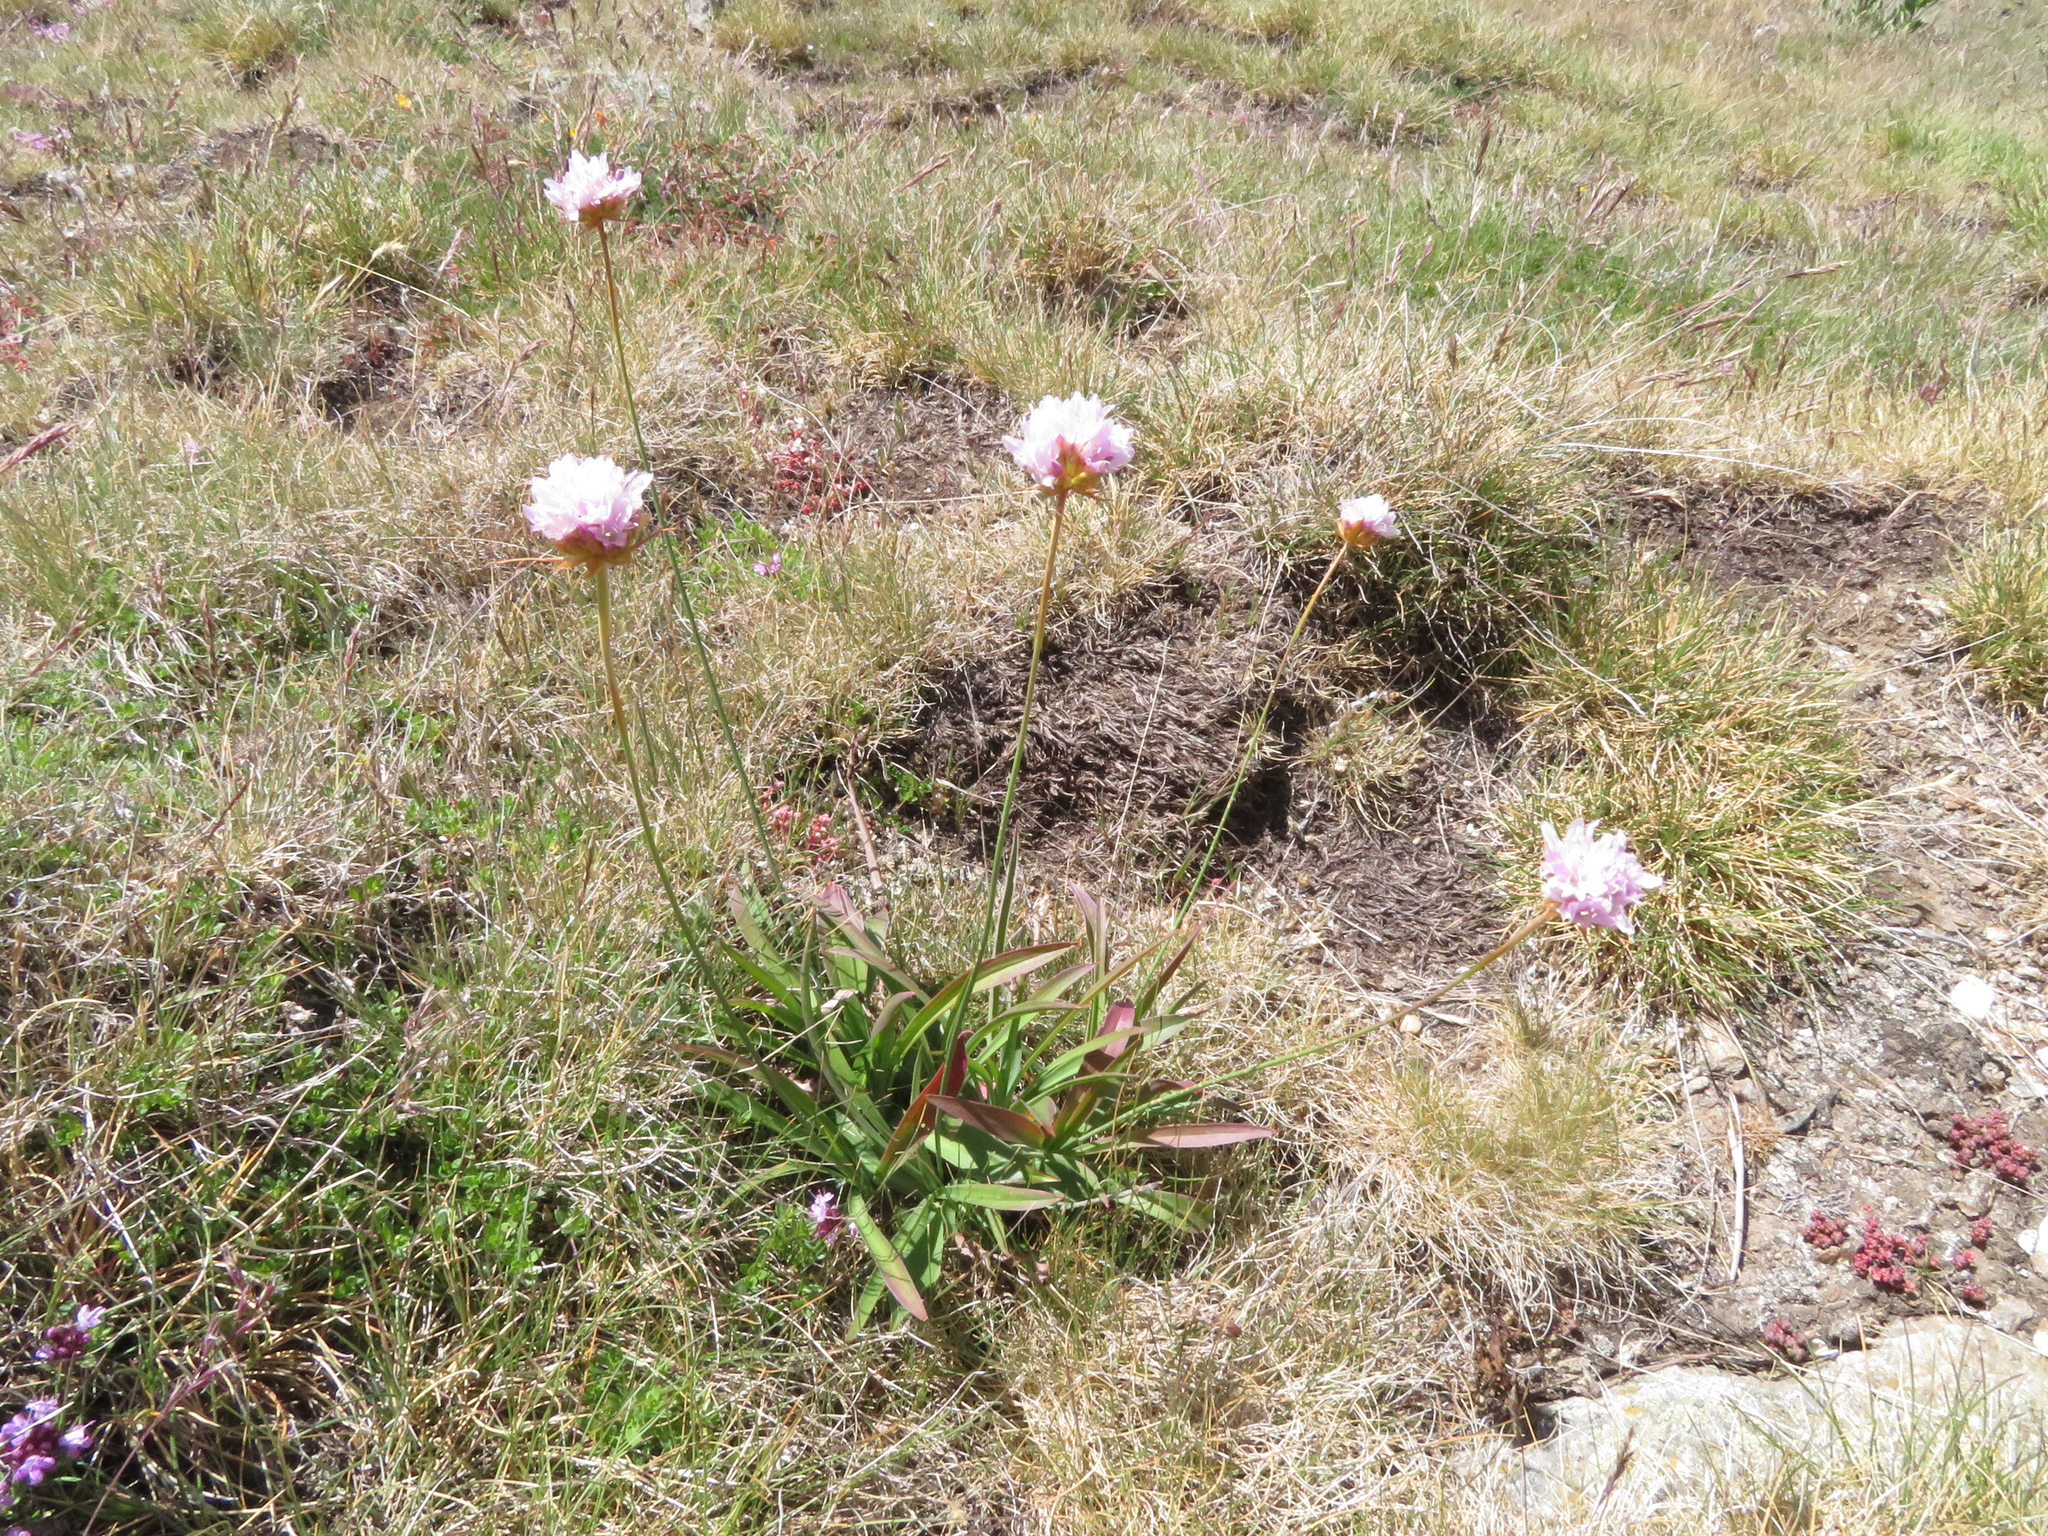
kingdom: Plantae
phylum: Tracheophyta
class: Magnoliopsida
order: Caryophyllales
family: Plumbaginaceae
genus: Armeria
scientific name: Armeria arenaria
